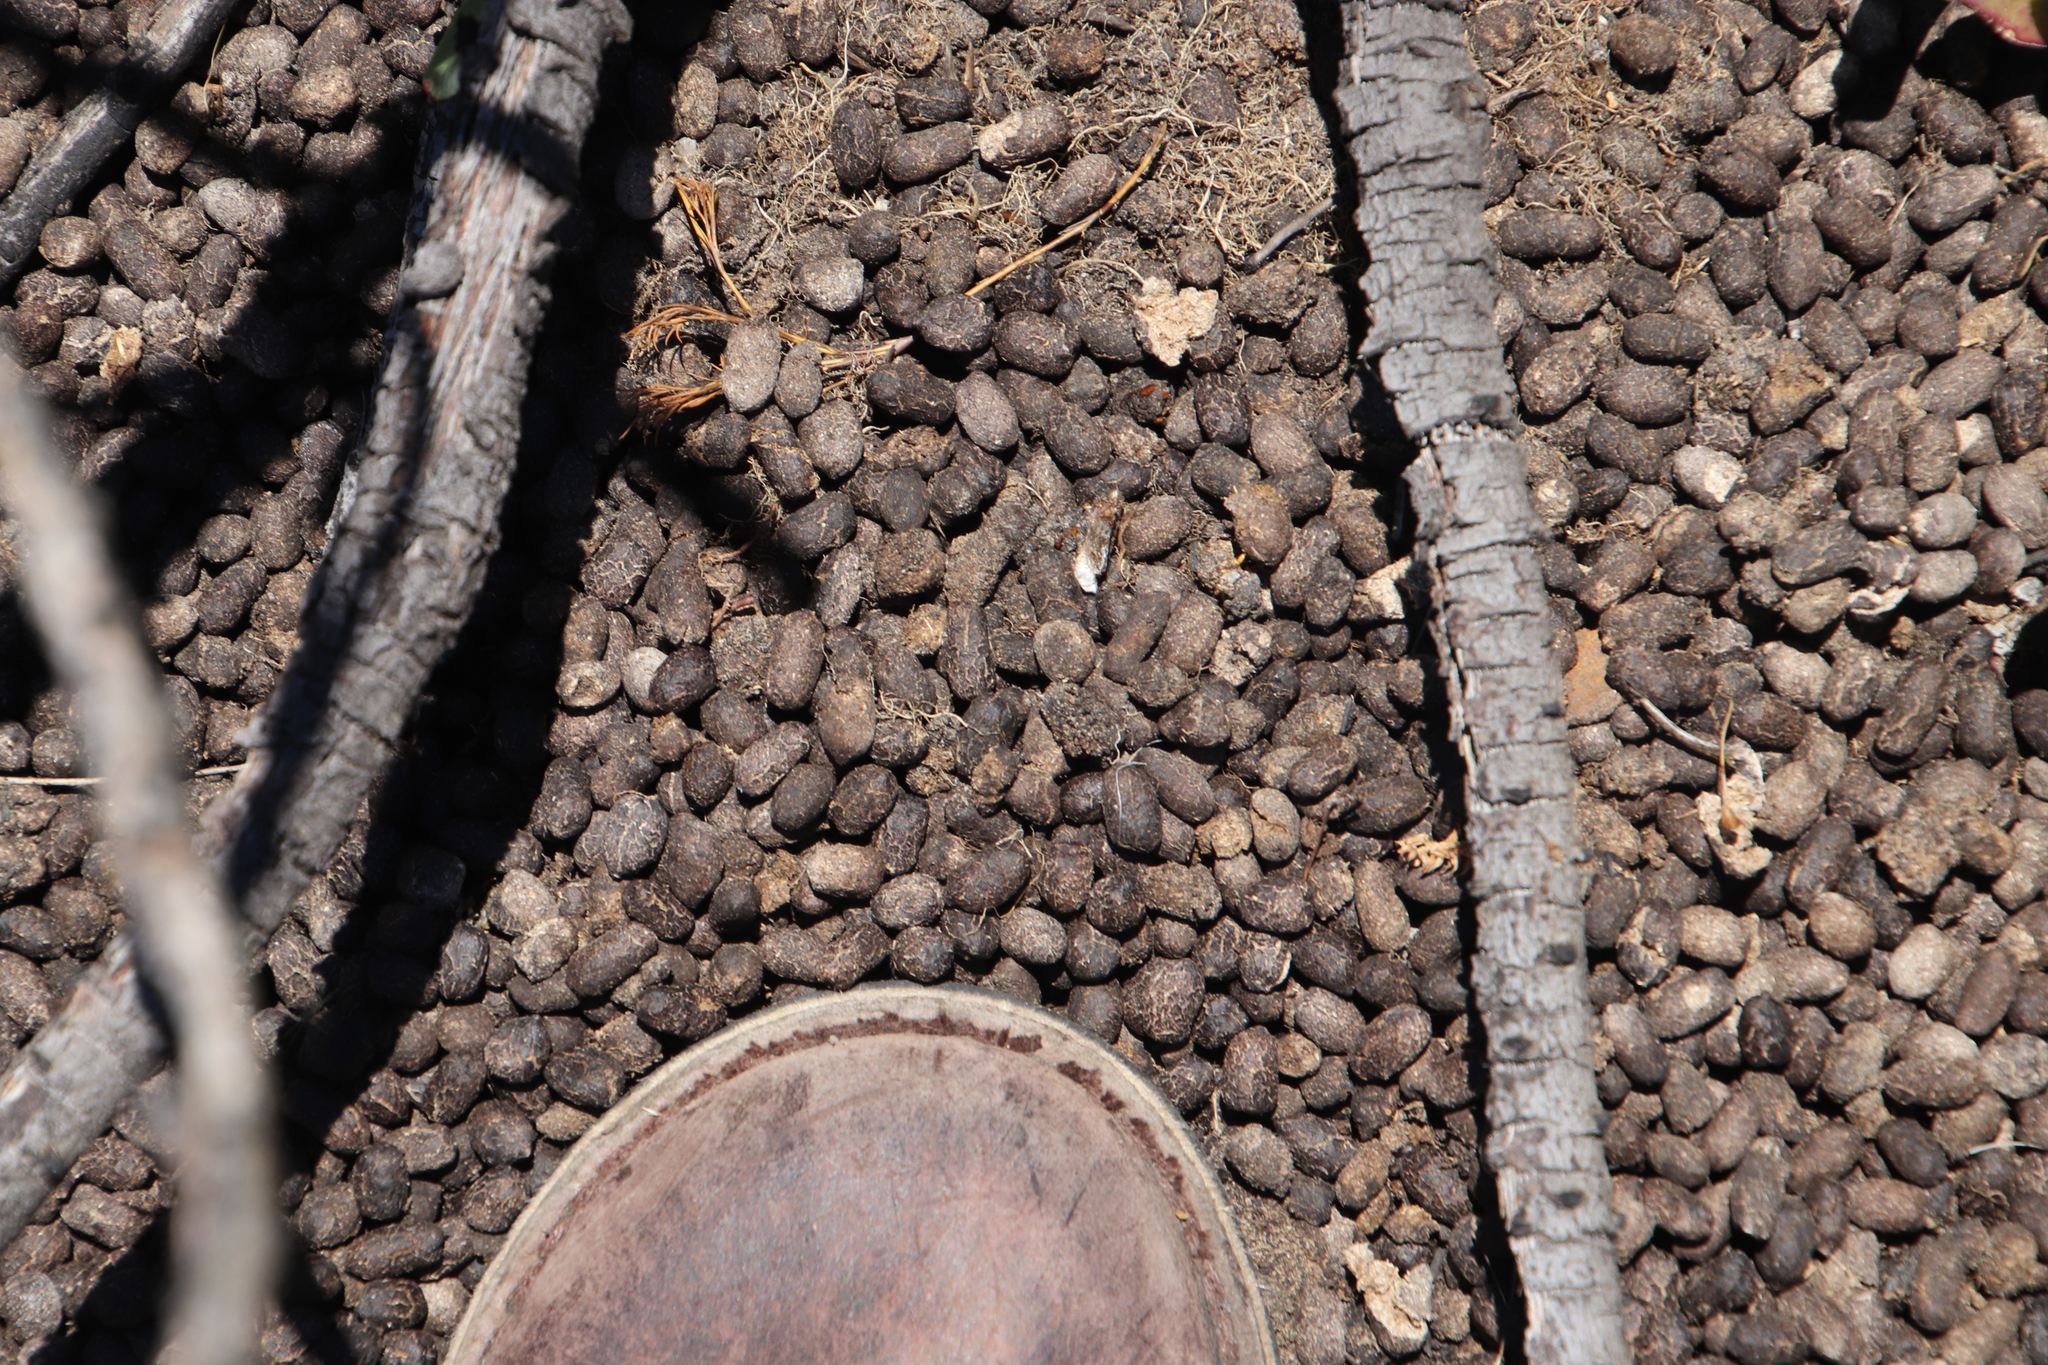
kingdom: Animalia
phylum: Chordata
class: Mammalia
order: Artiodactyla
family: Bovidae
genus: Oreotragus
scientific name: Oreotragus oreotragus
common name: Klipspringer
